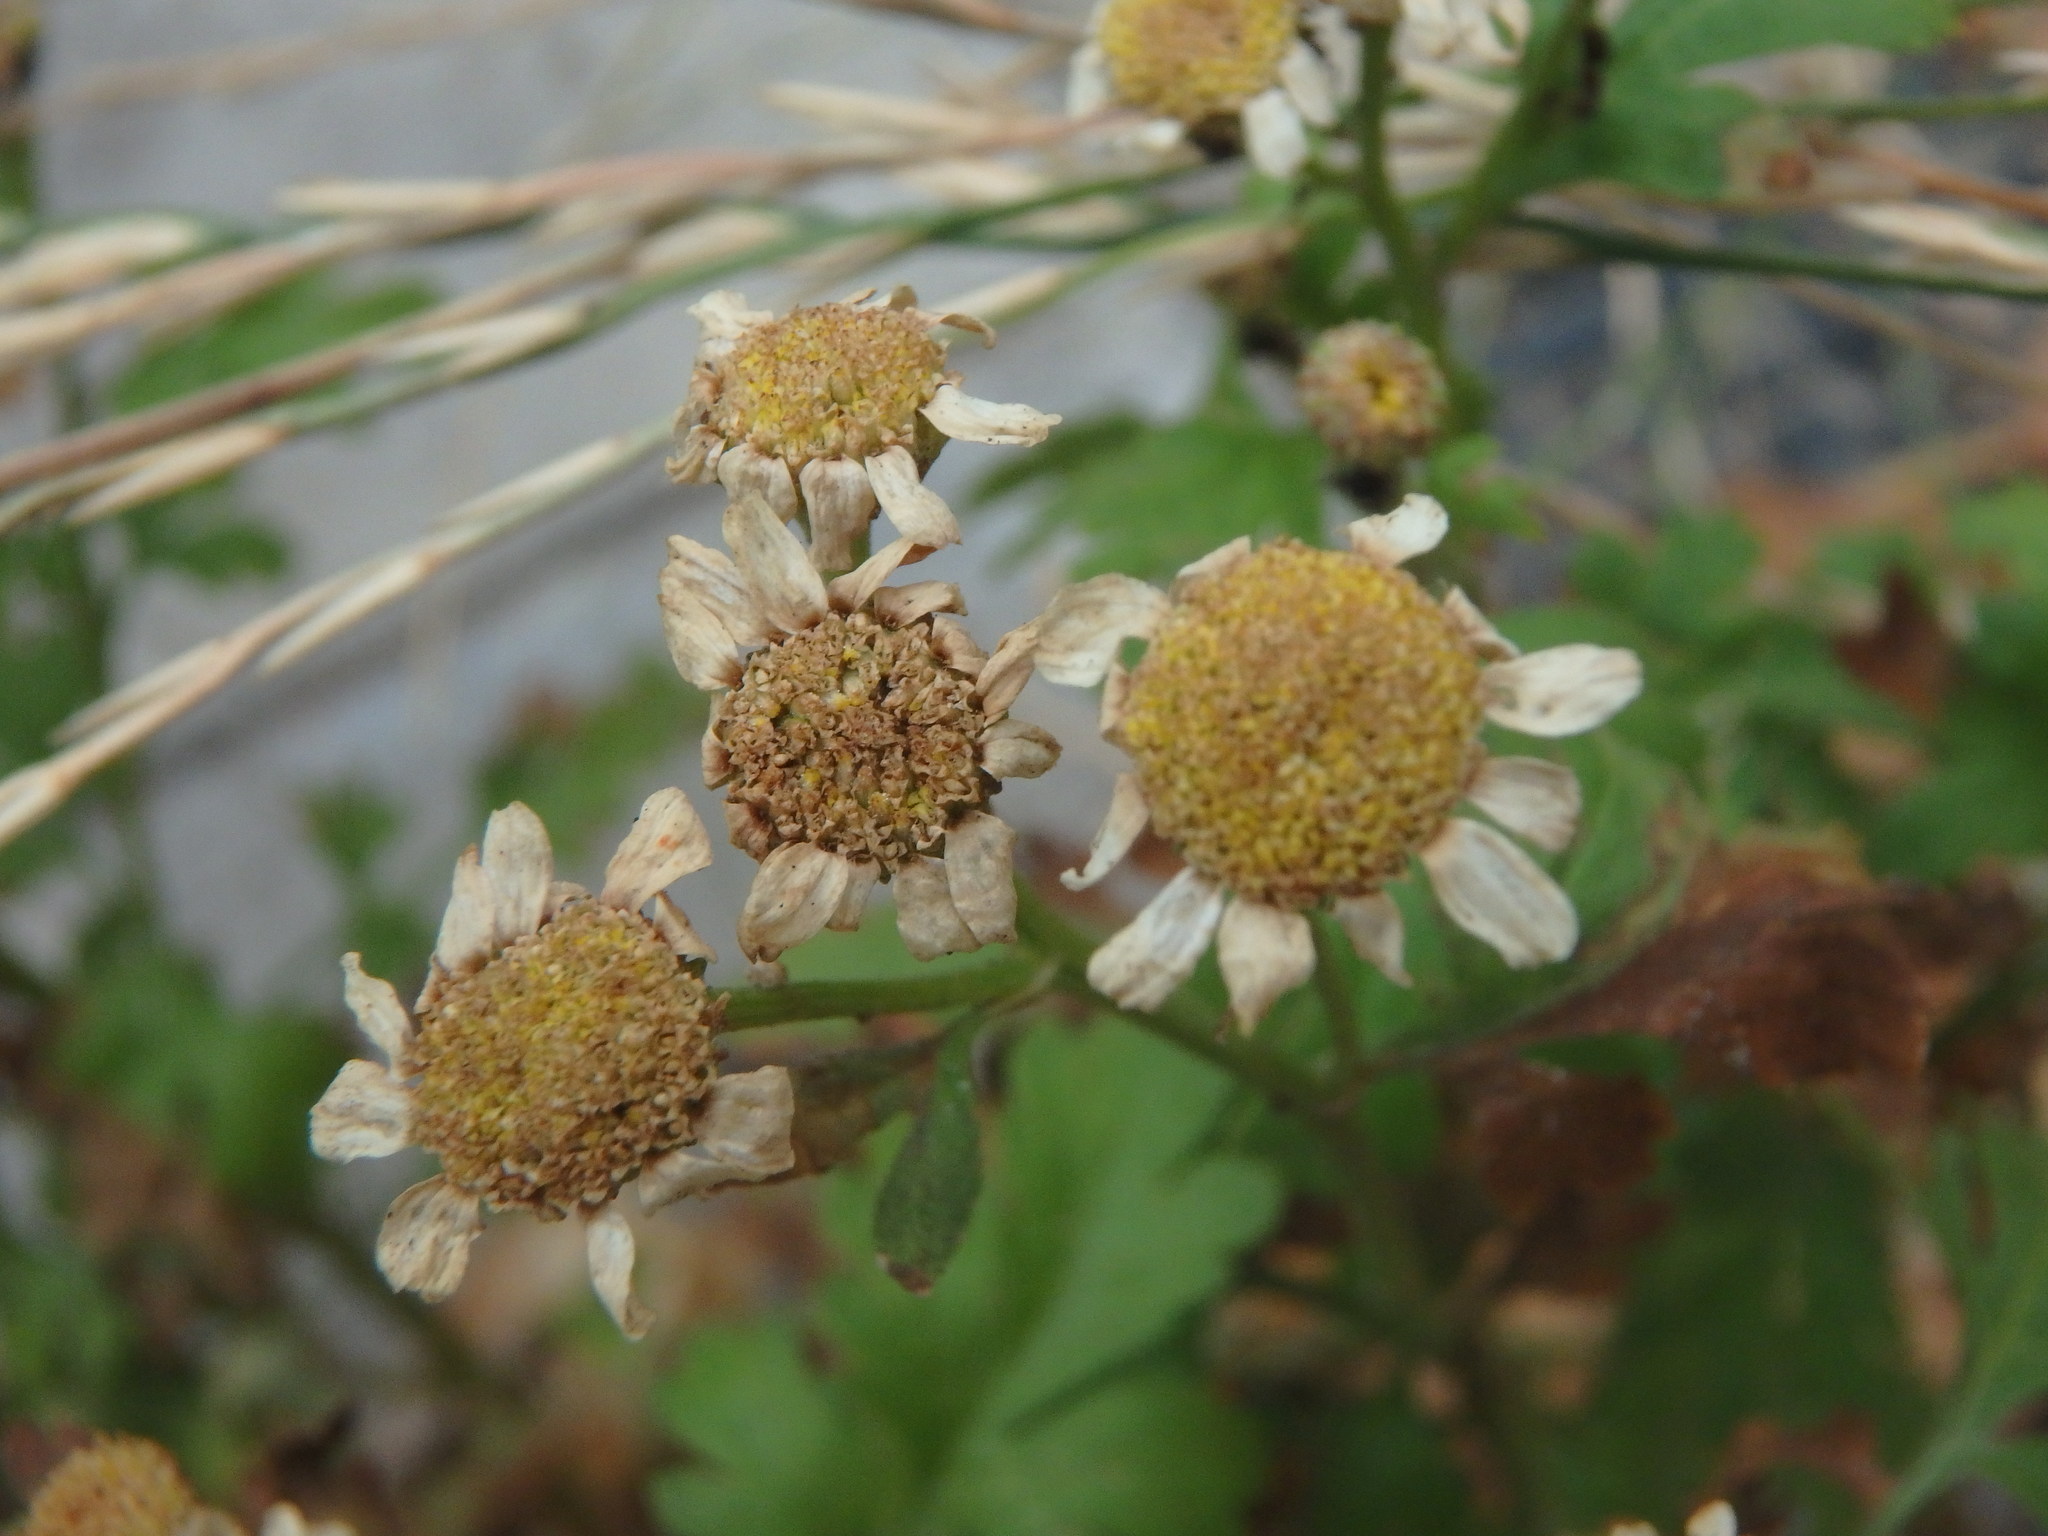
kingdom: Plantae
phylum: Tracheophyta
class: Magnoliopsida
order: Asterales
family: Asteraceae
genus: Tanacetum
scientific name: Tanacetum parthenium
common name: Feverfew
